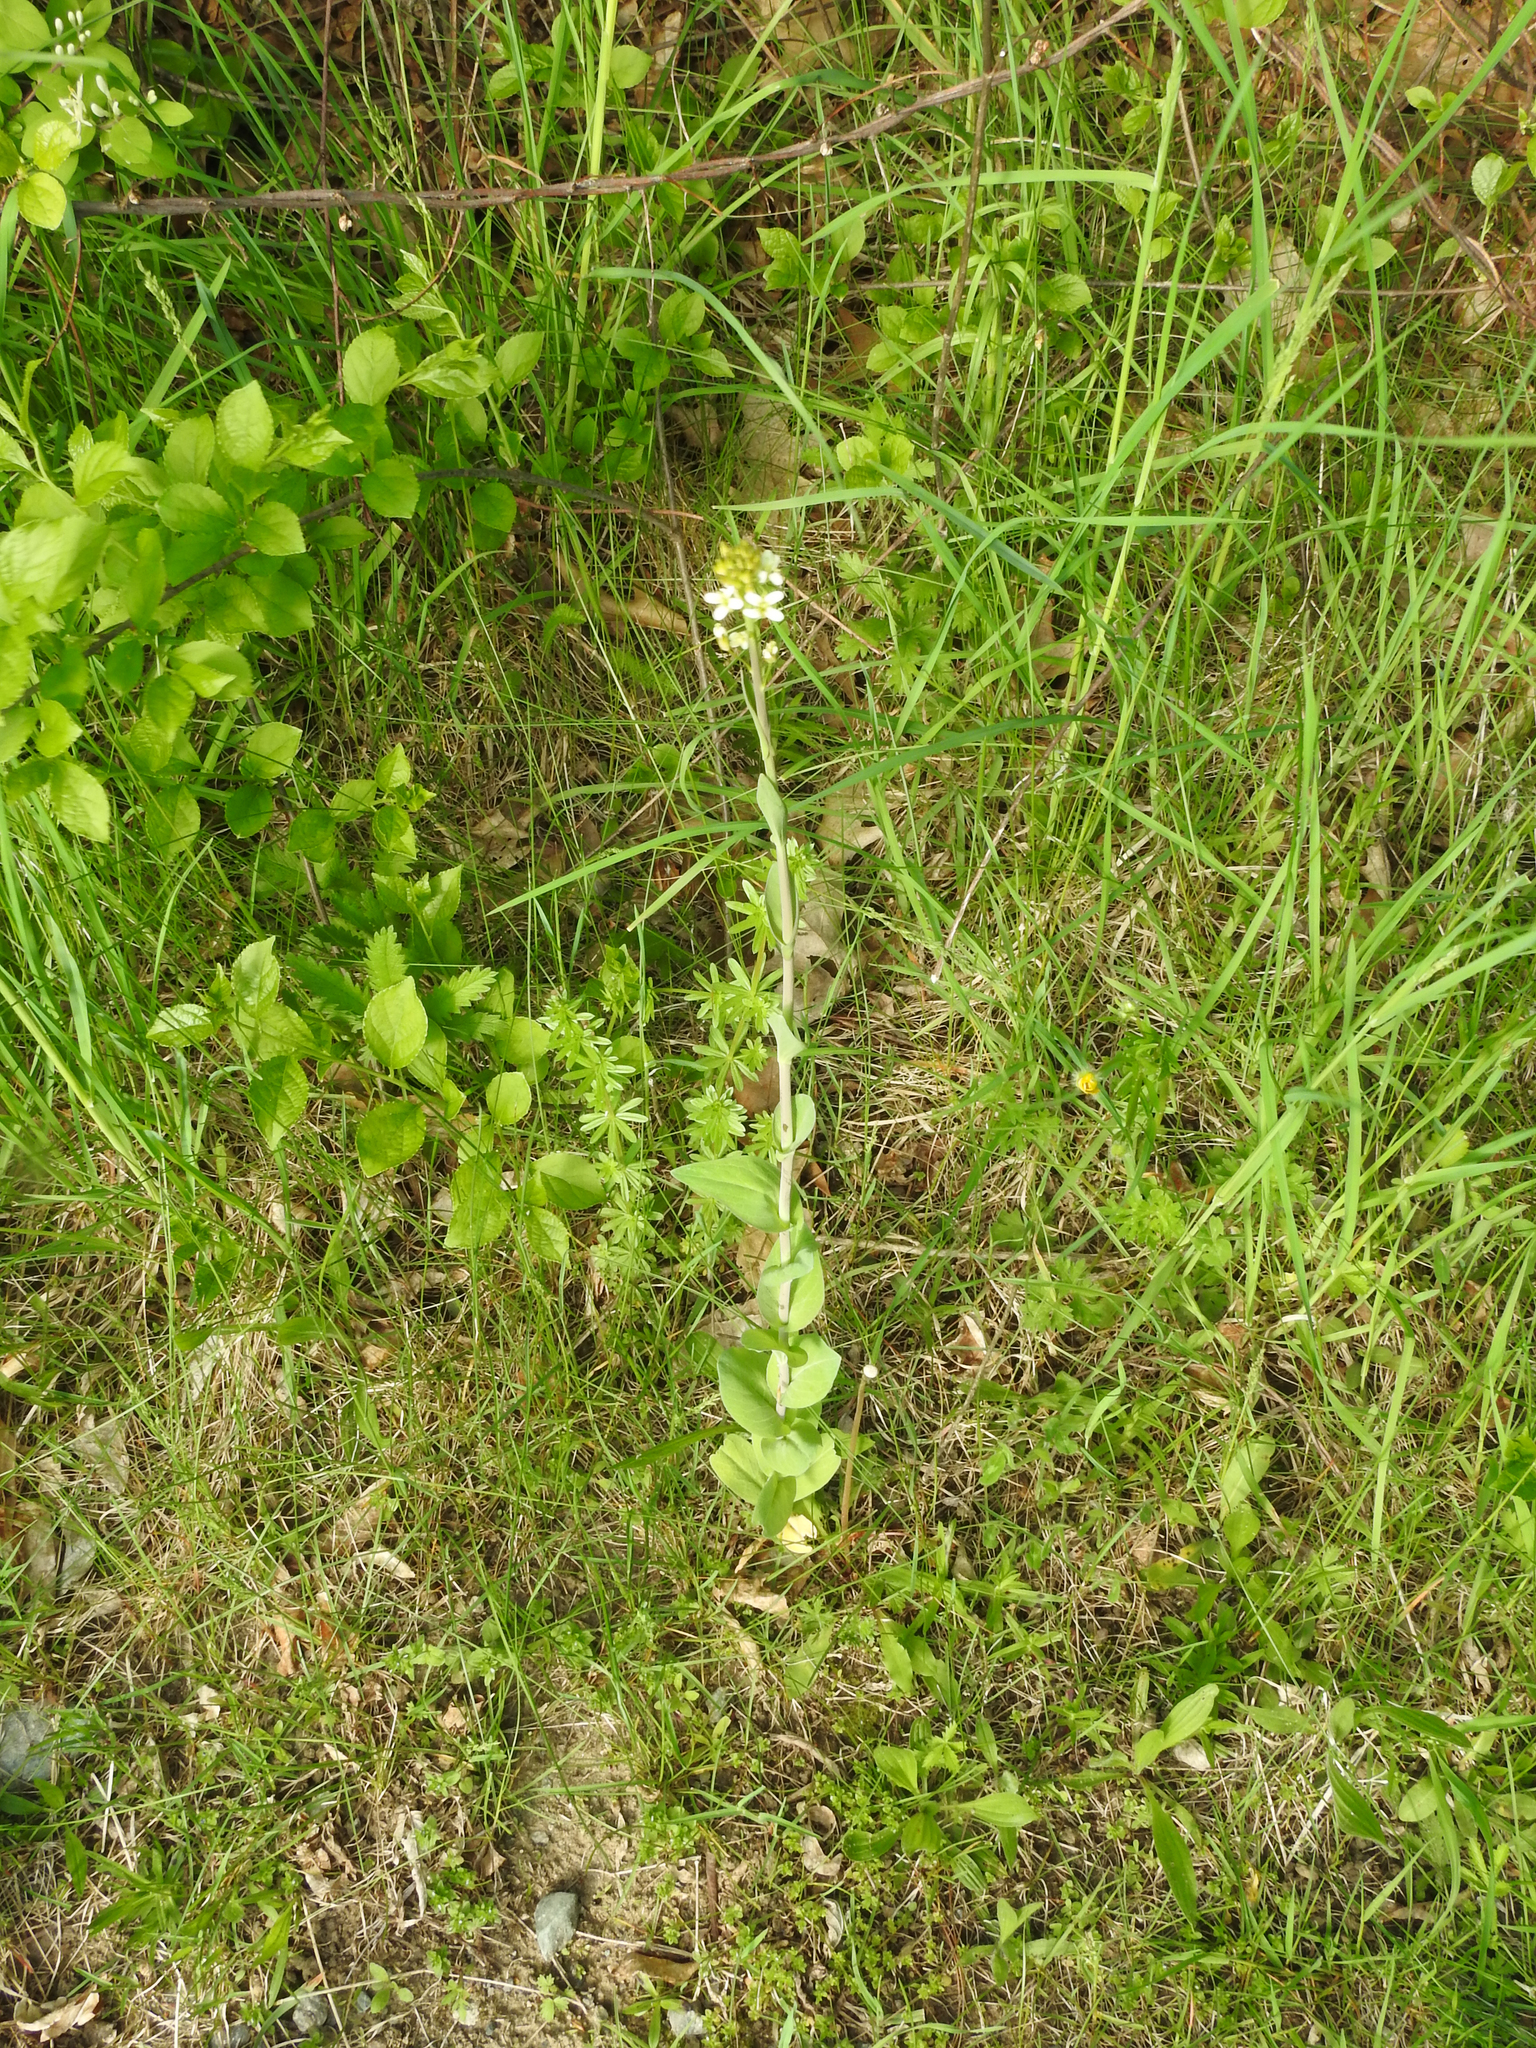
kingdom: Plantae
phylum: Tracheophyta
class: Magnoliopsida
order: Brassicales
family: Brassicaceae
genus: Turritis
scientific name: Turritis glabra
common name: Tower rockcress
